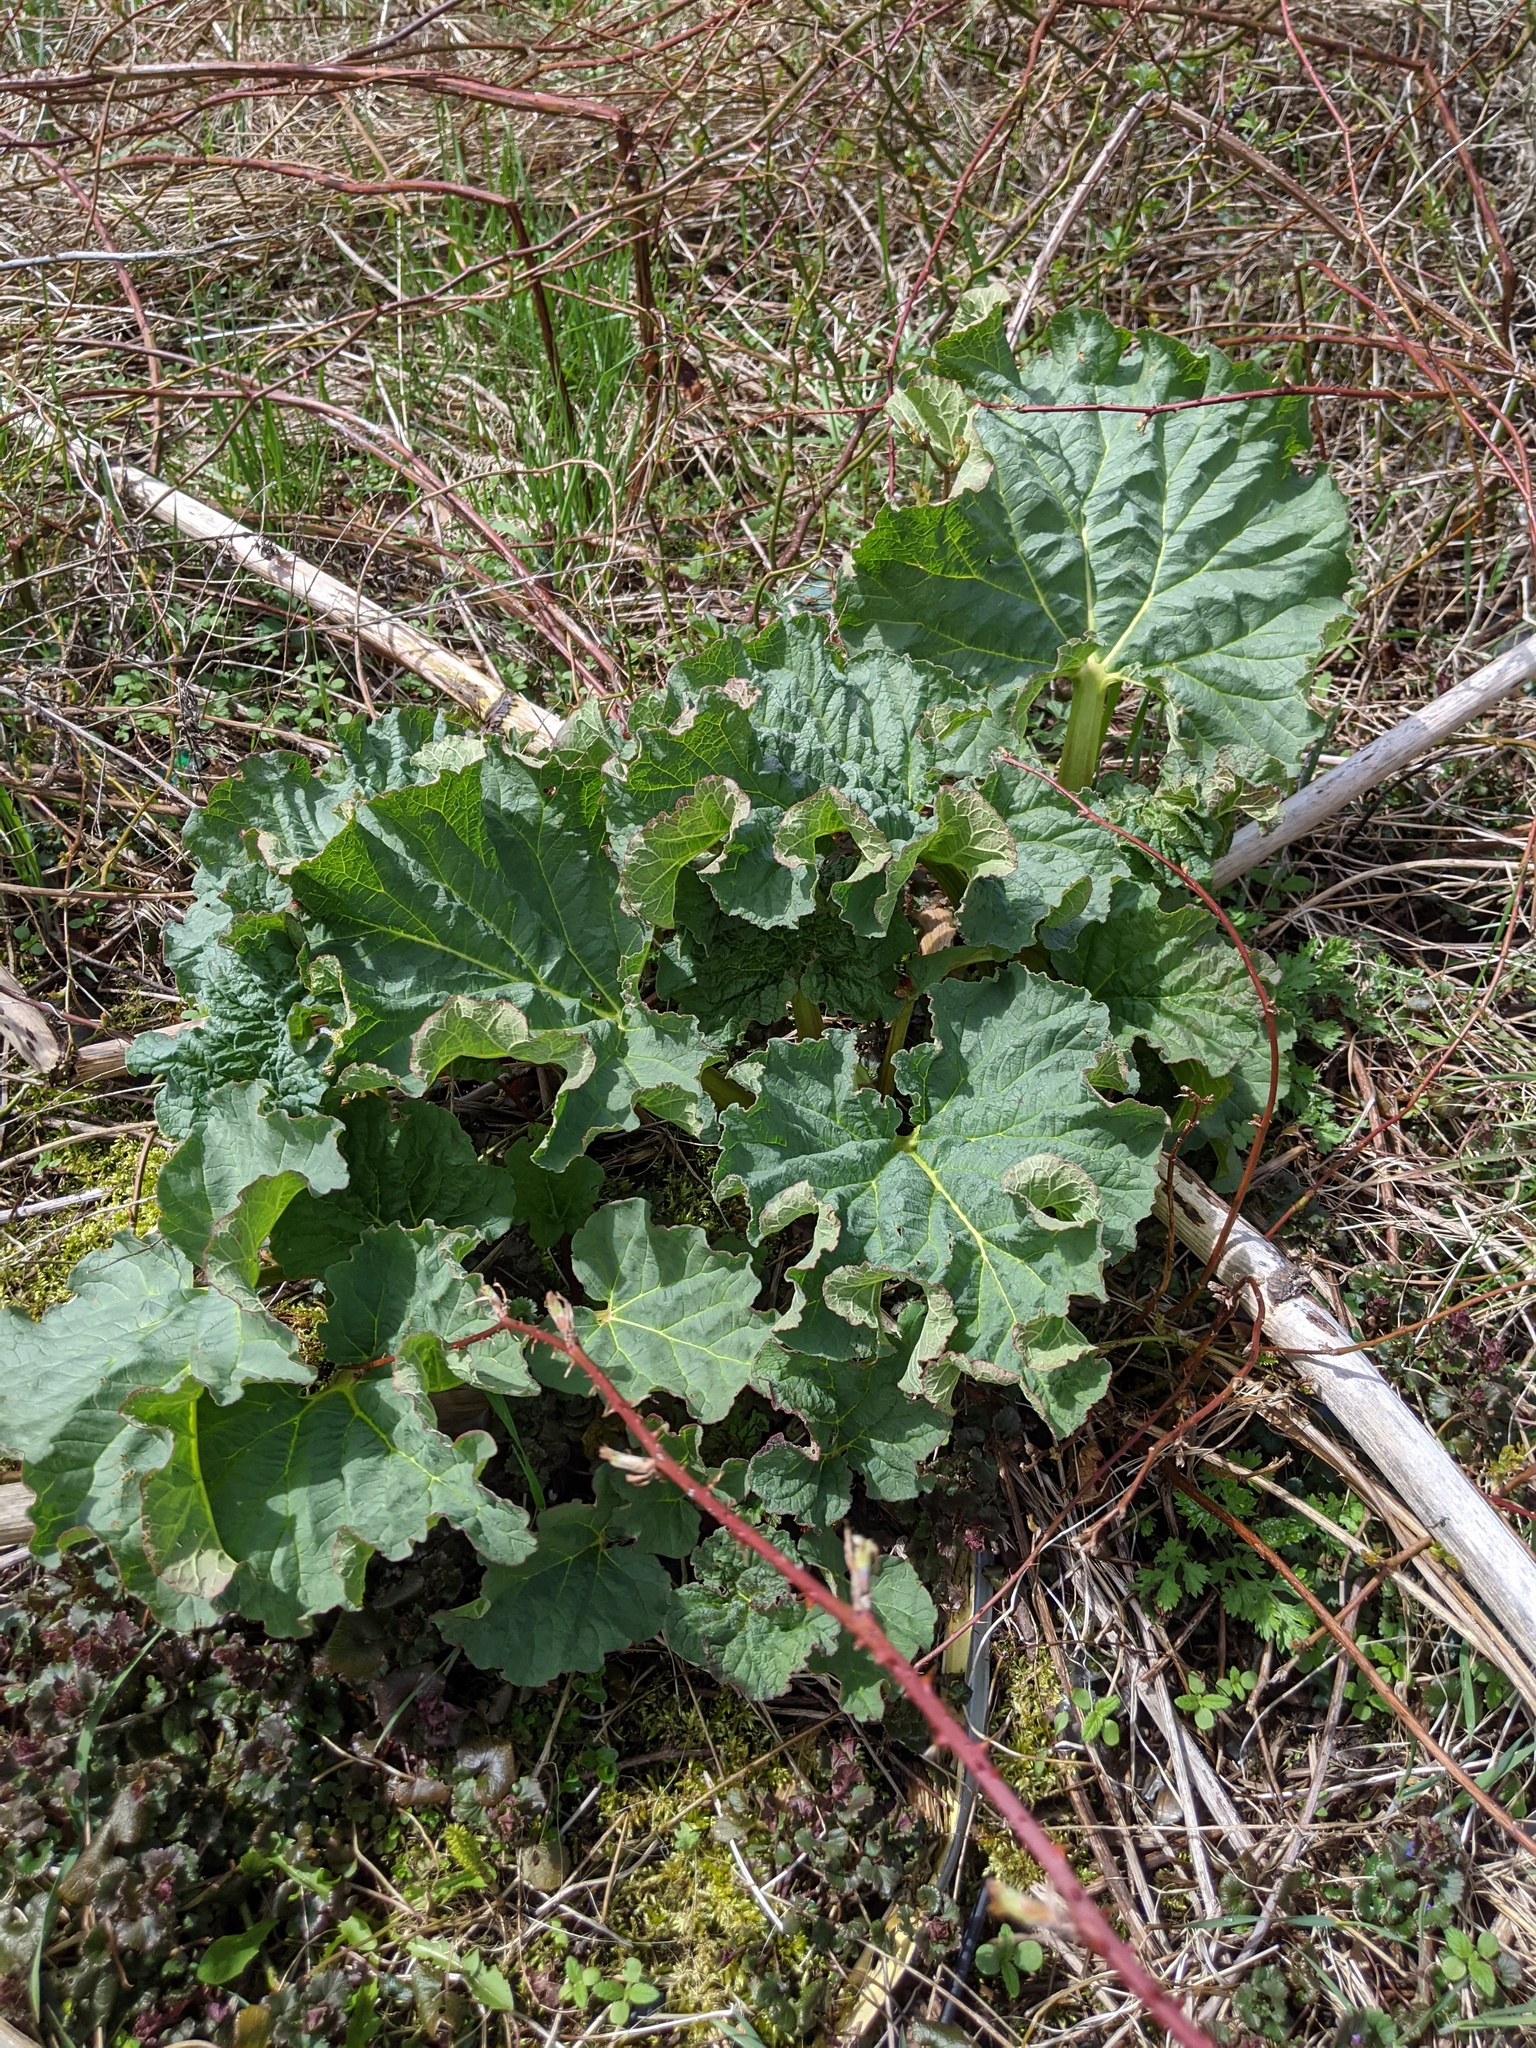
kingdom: Plantae
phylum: Tracheophyta
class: Magnoliopsida
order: Caryophyllales
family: Polygonaceae
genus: Rheum
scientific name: Rheum hybridum
